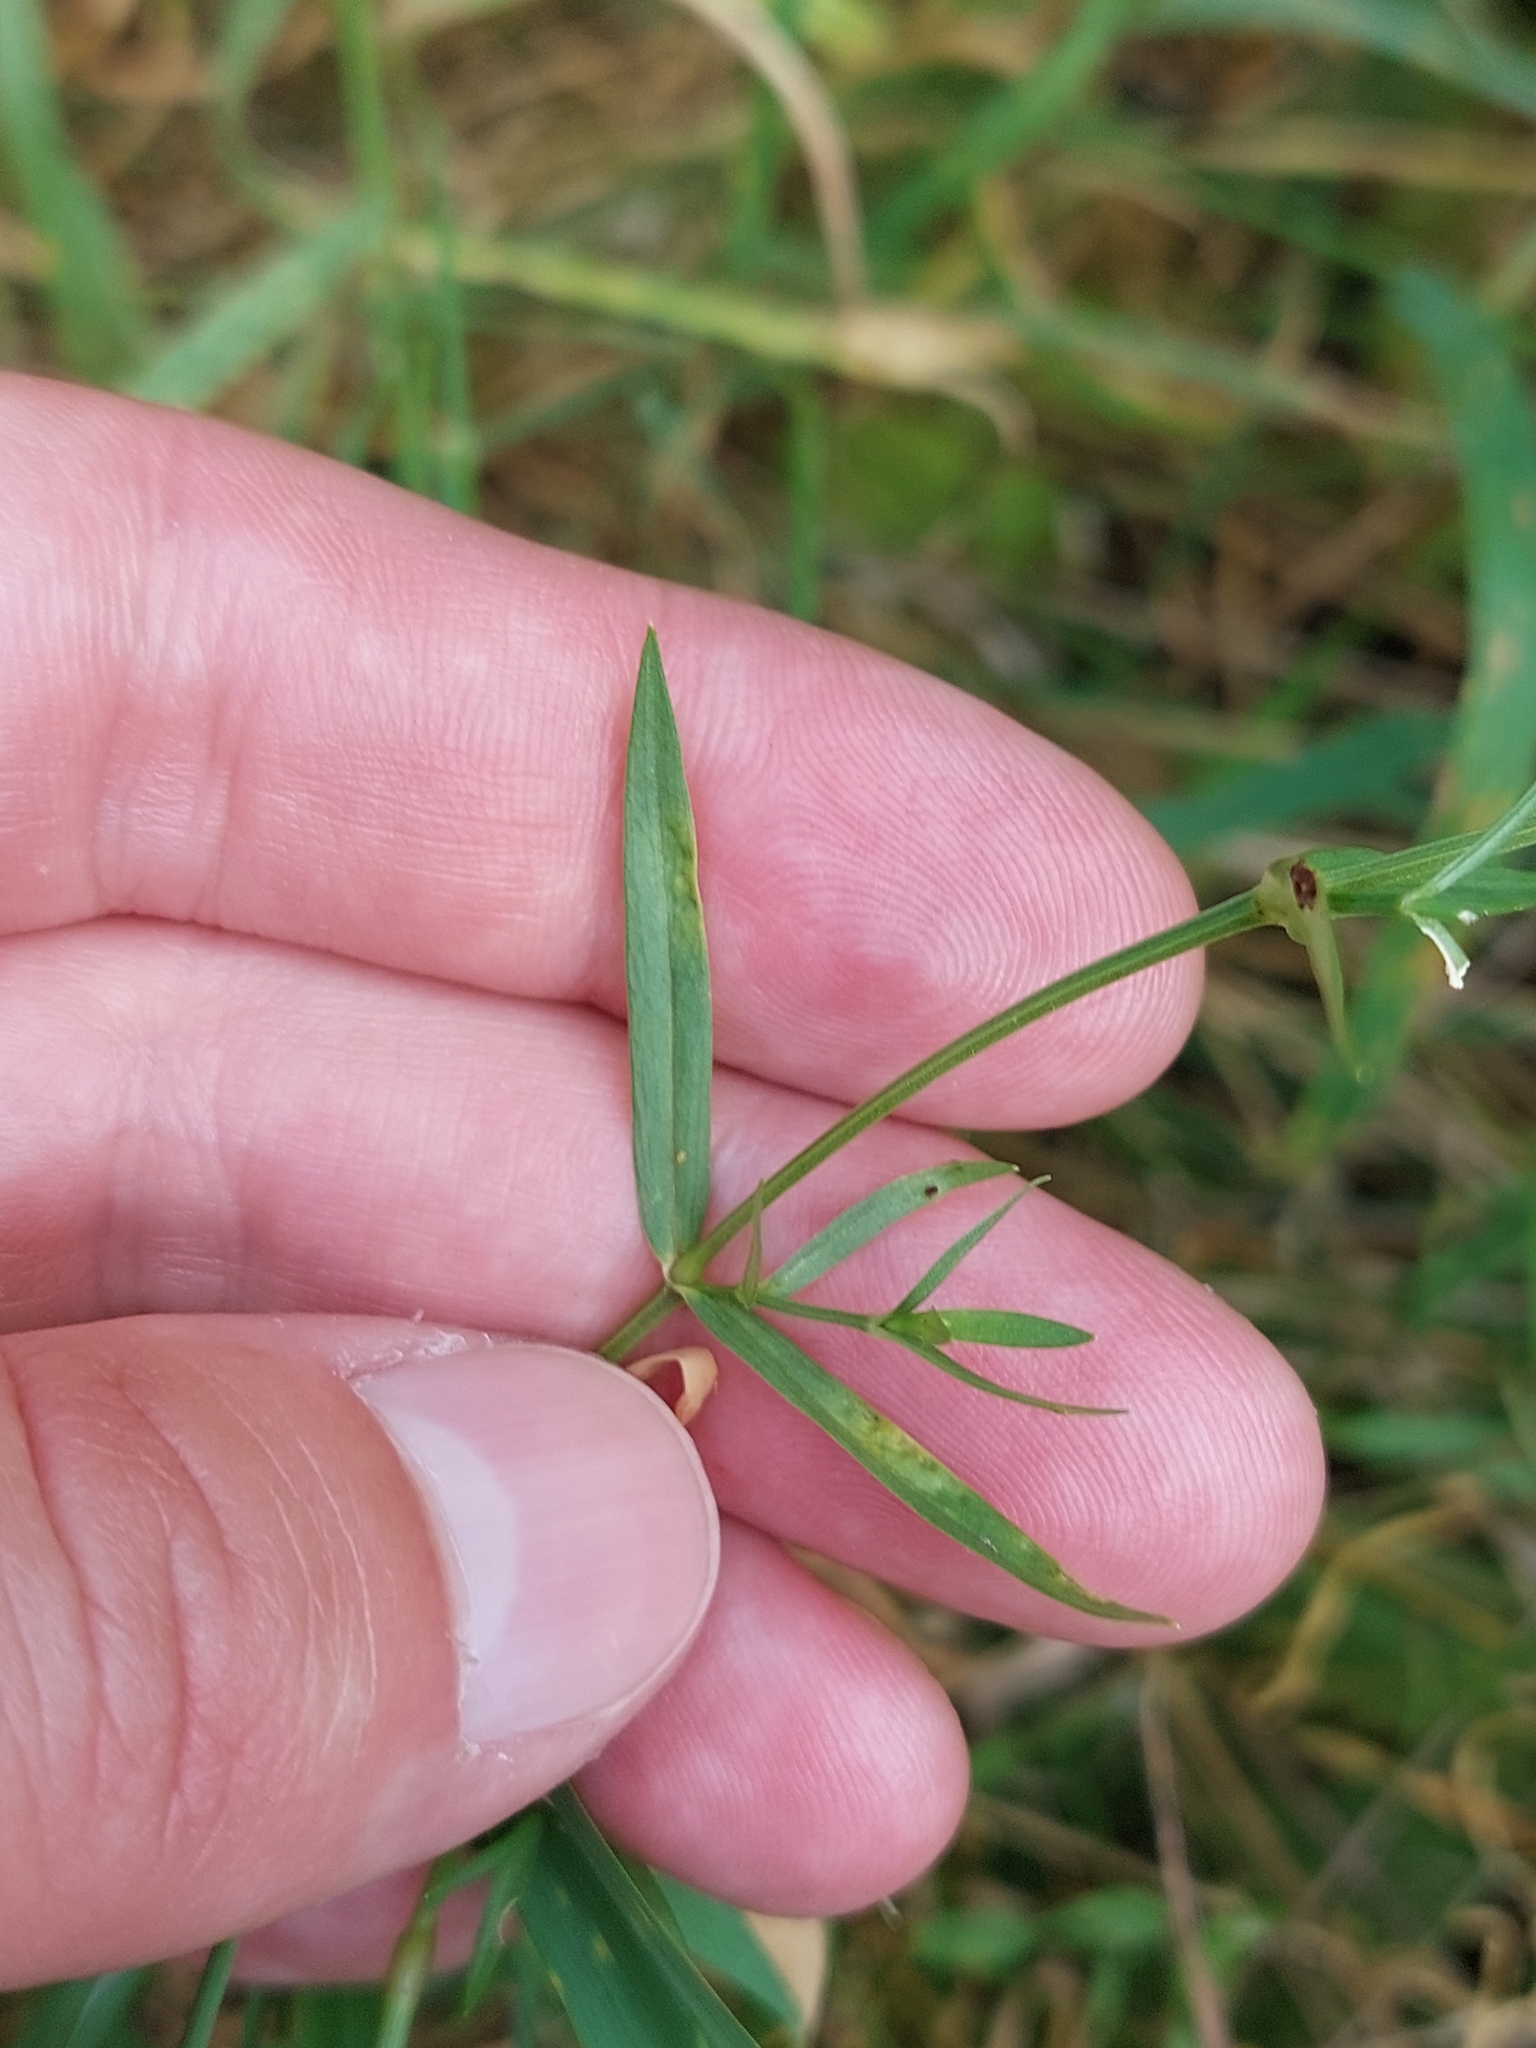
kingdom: Plantae
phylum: Tracheophyta
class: Magnoliopsida
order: Caryophyllales
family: Caryophyllaceae
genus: Stellaria
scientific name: Stellaria graminea
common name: Grass-like starwort
